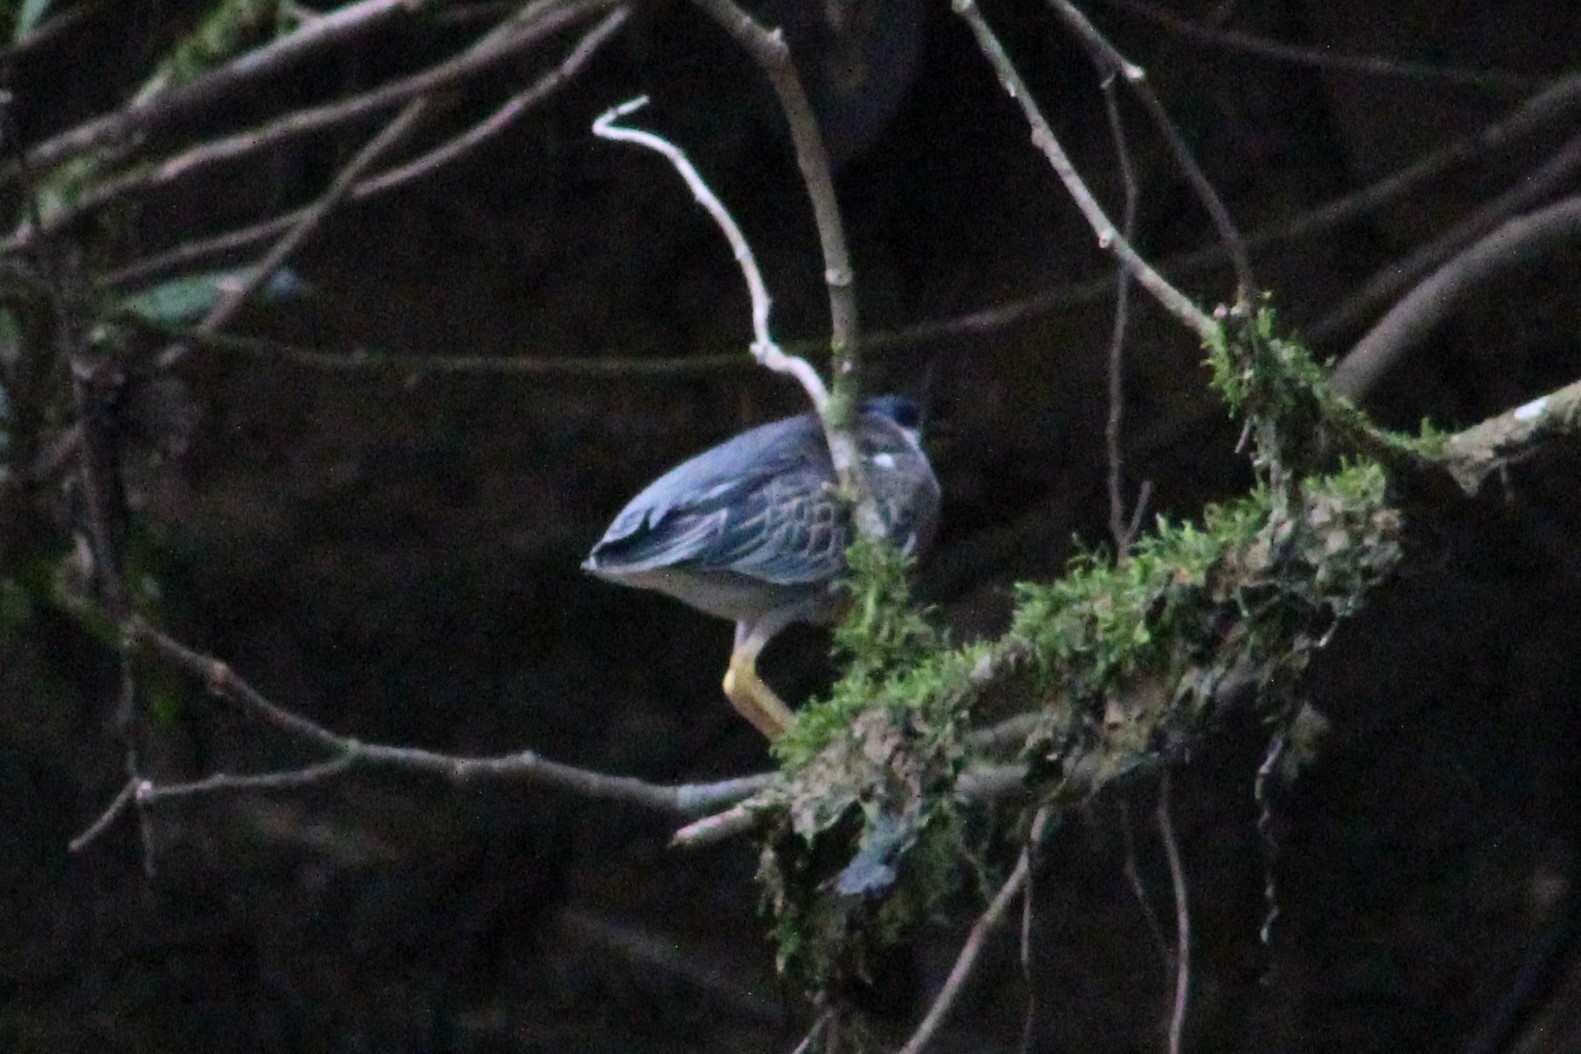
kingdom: Animalia
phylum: Chordata
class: Aves
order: Pelecaniformes
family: Ardeidae
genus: Butorides
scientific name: Butorides striata
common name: Striated heron
